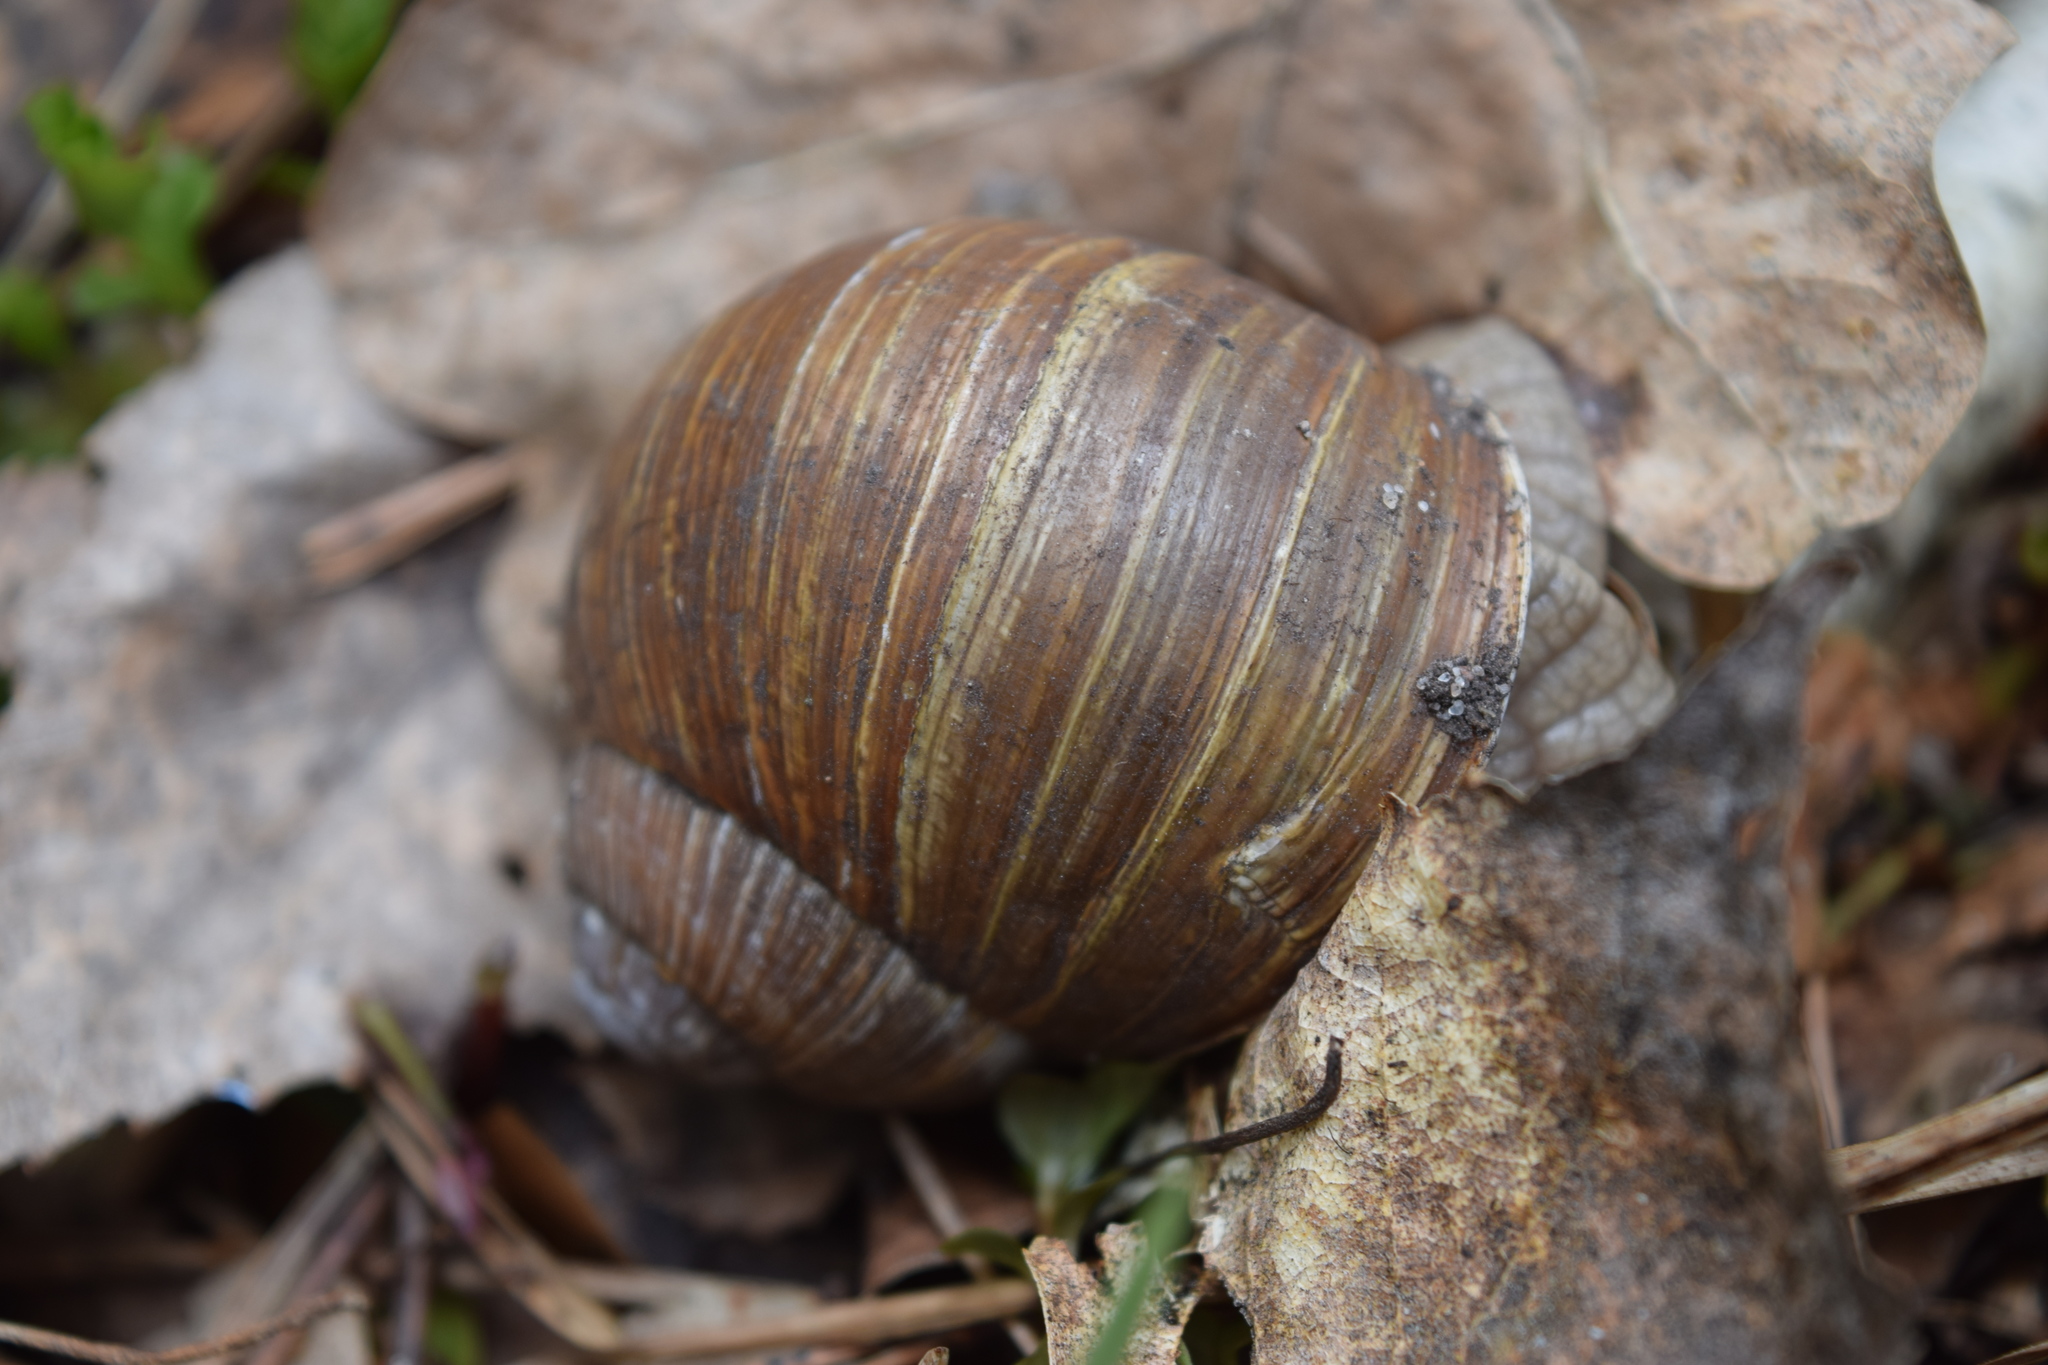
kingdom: Animalia
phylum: Mollusca
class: Gastropoda
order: Stylommatophora
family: Helicidae
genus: Helix
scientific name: Helix pomatia
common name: Roman snail
